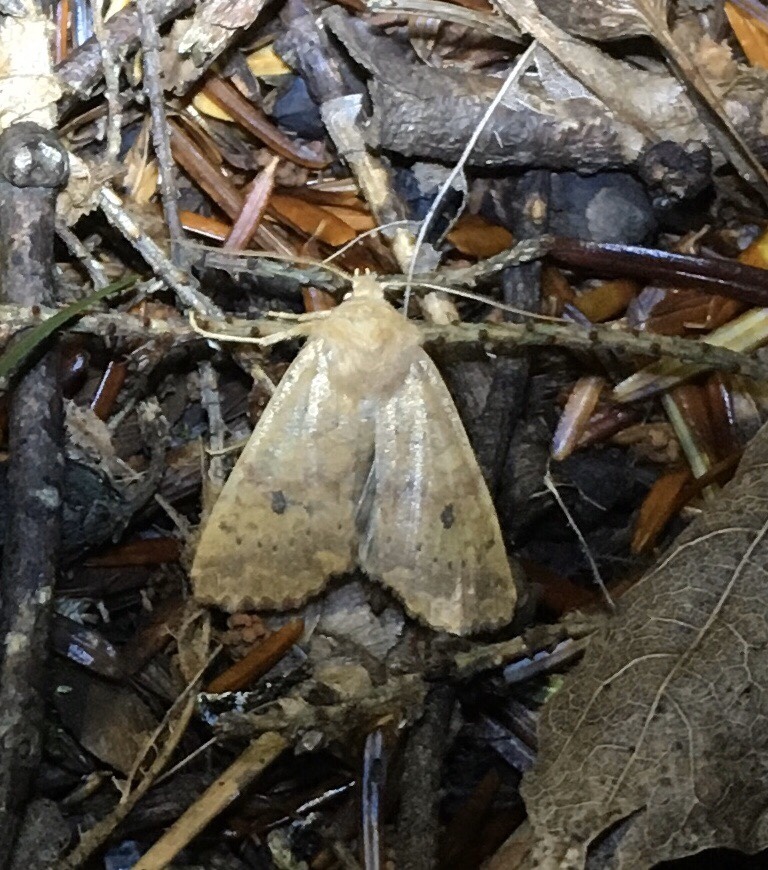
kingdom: Animalia
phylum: Arthropoda
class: Insecta
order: Lepidoptera
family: Noctuidae
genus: Agrochola
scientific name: Agrochola bicolorago
